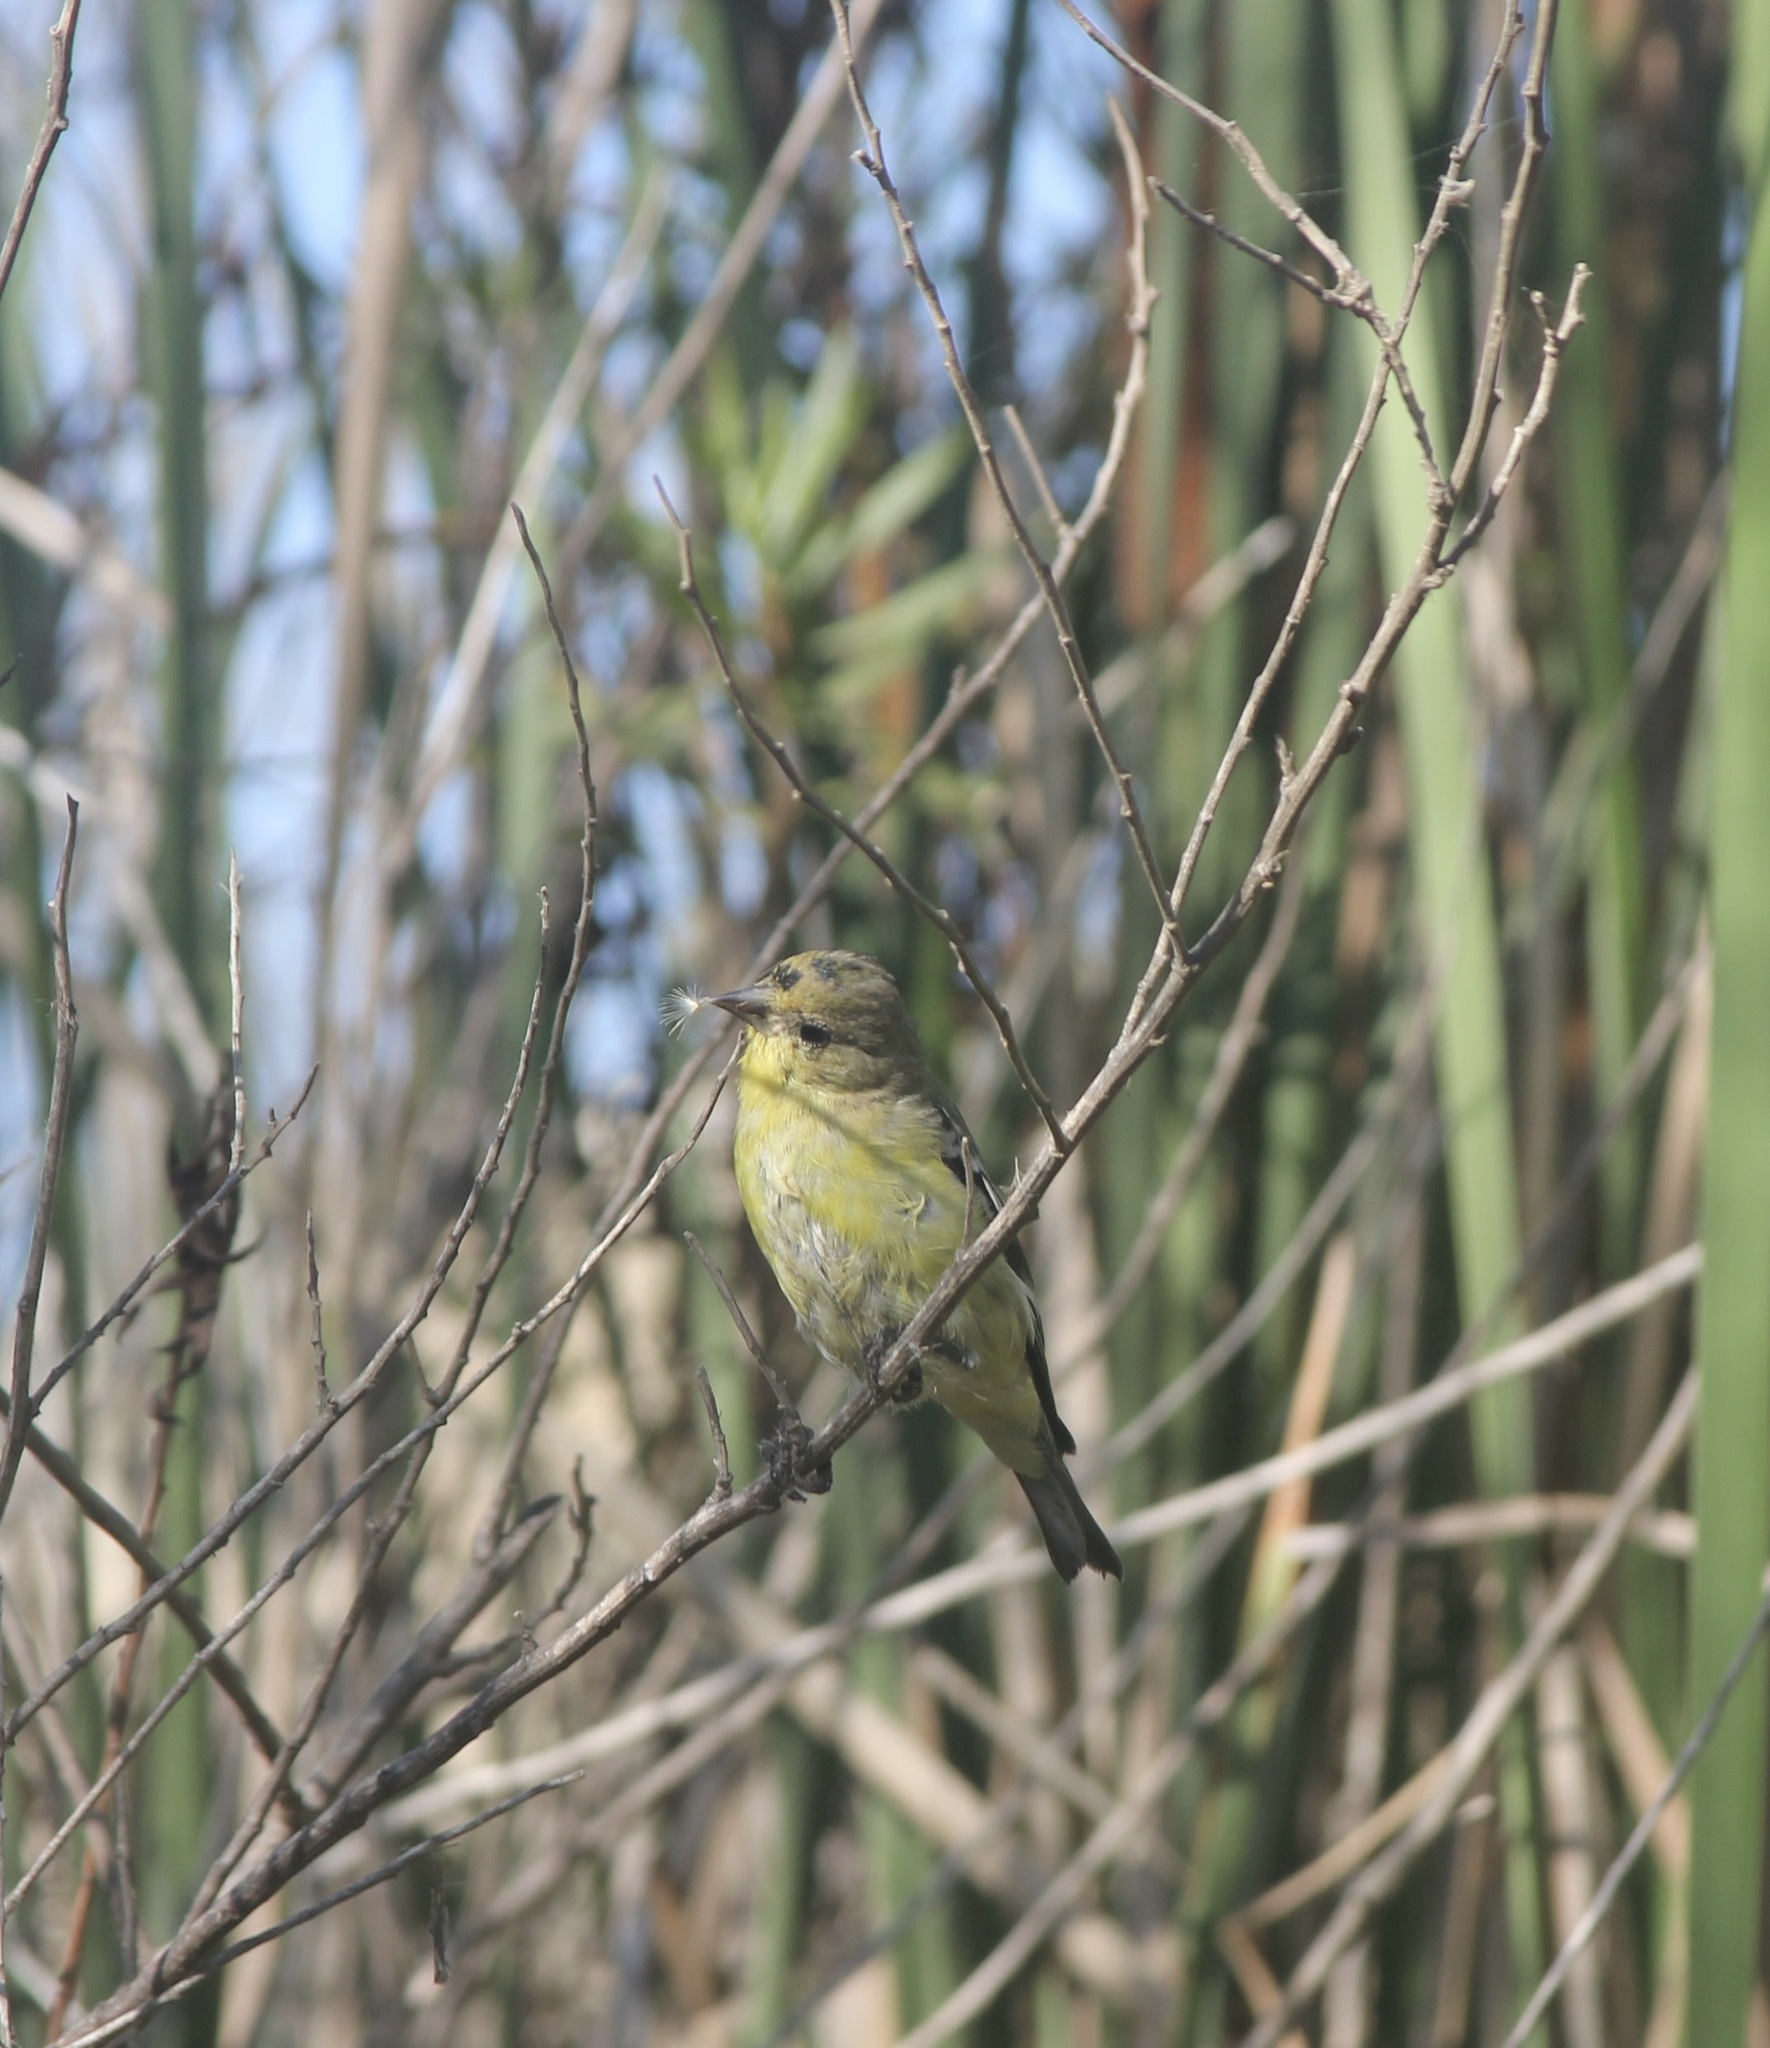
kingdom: Animalia
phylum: Chordata
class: Aves
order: Passeriformes
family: Fringillidae
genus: Spinus
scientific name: Spinus psaltria
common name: Lesser goldfinch
